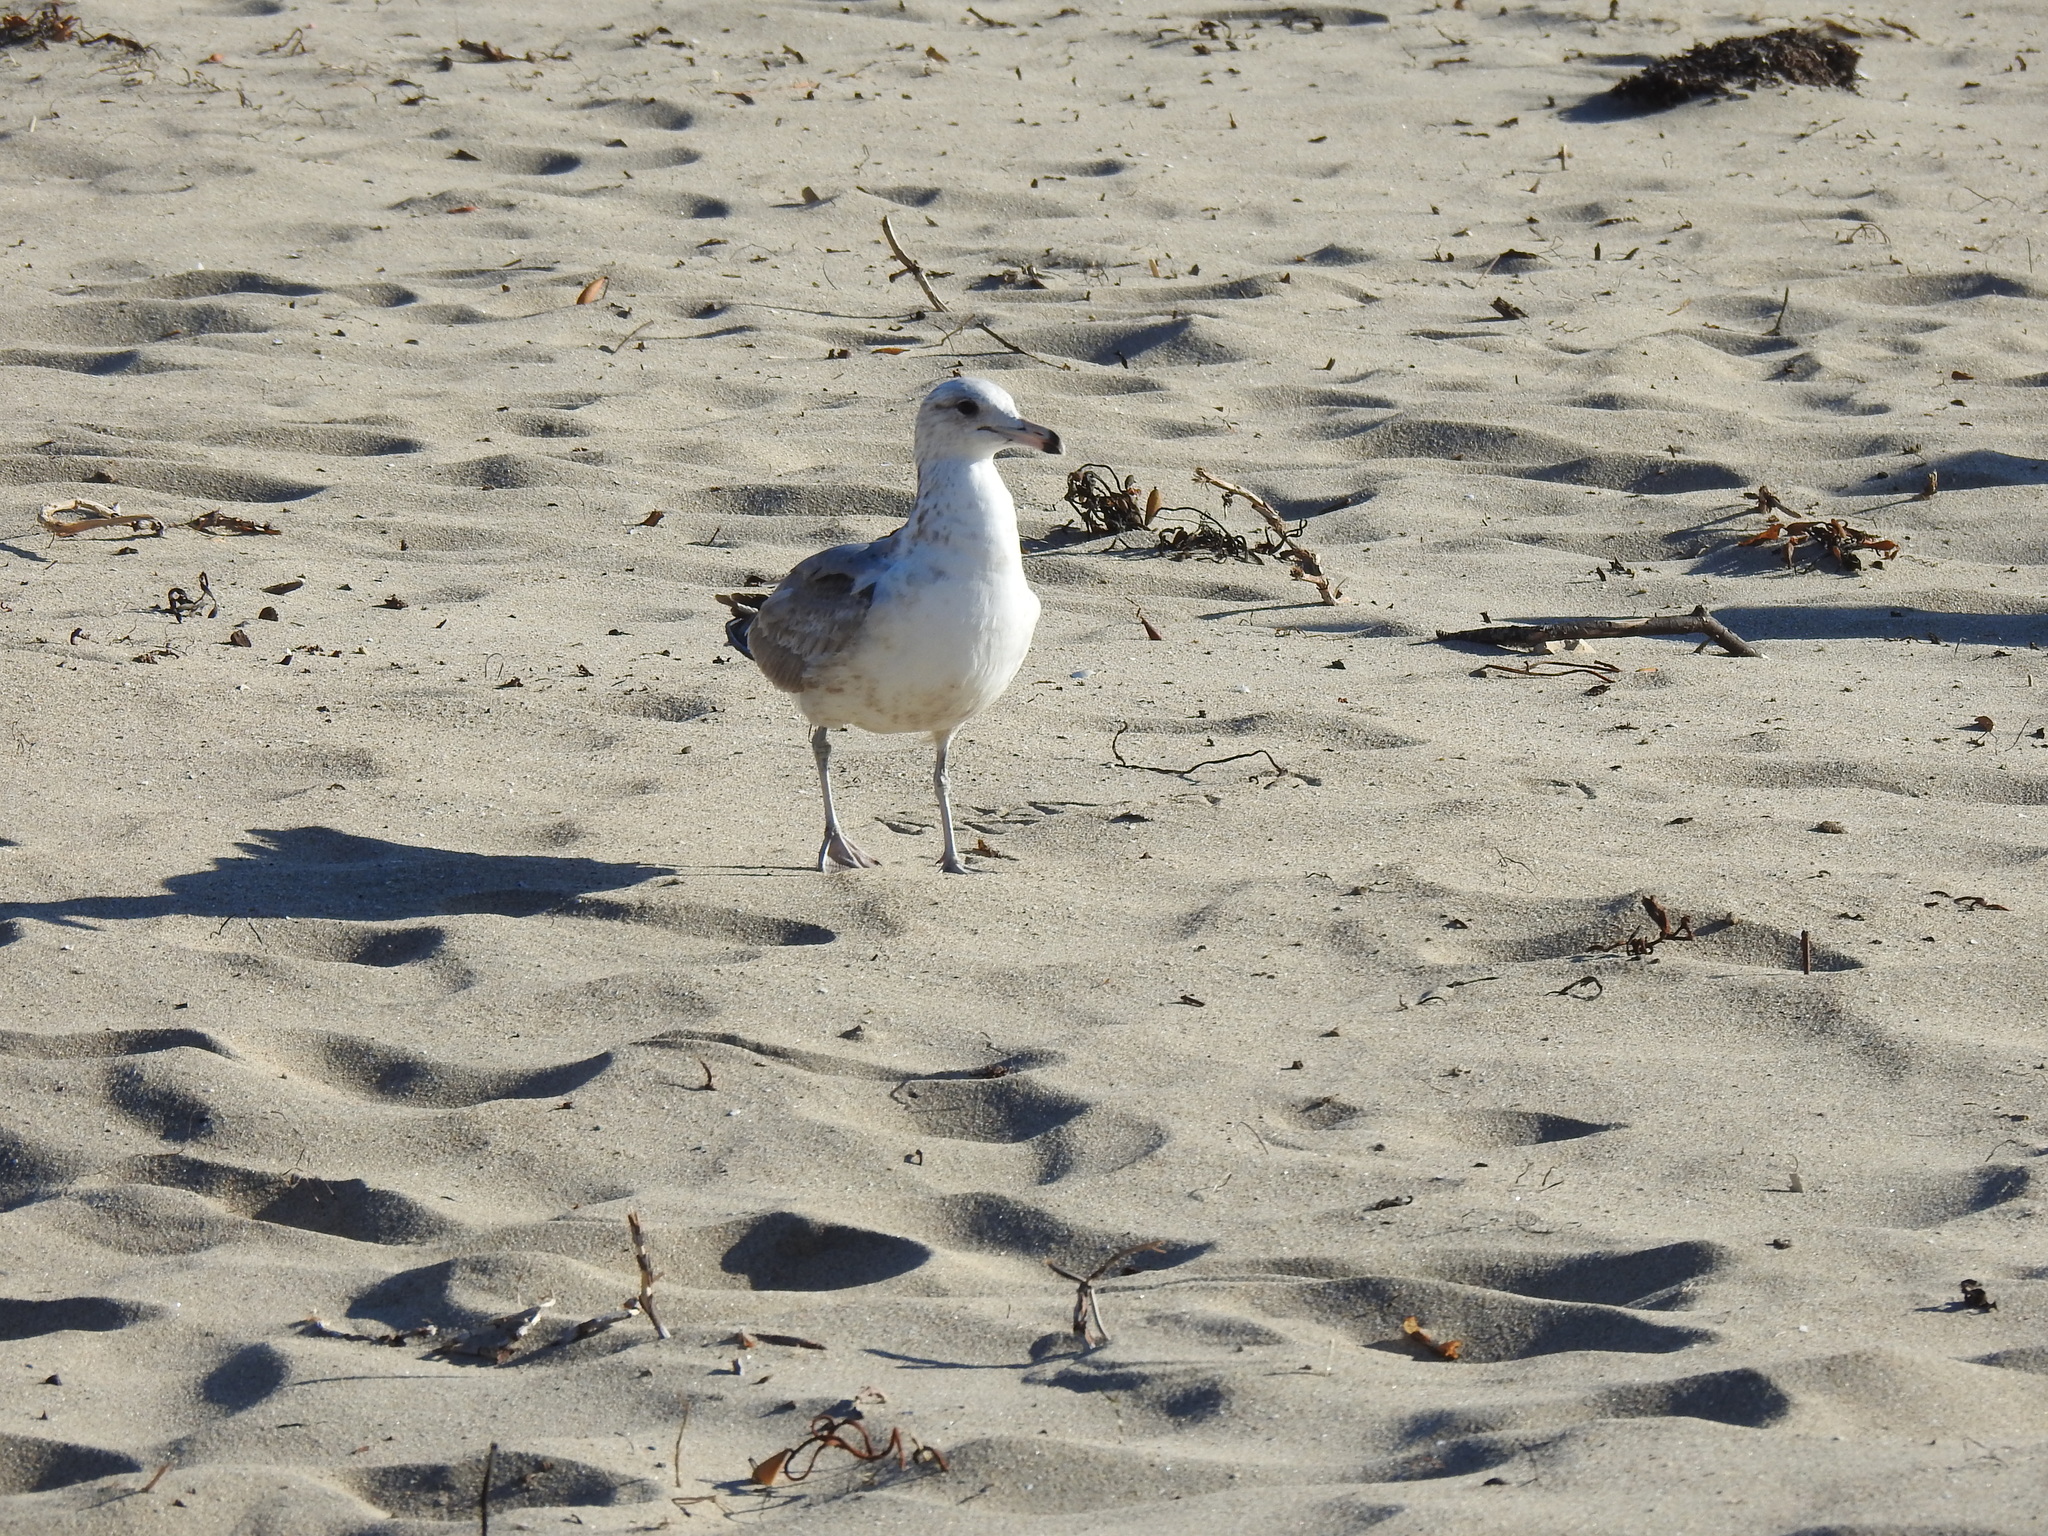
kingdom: Animalia
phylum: Chordata
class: Aves
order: Charadriiformes
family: Laridae
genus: Larus
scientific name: Larus californicus
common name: California gull
